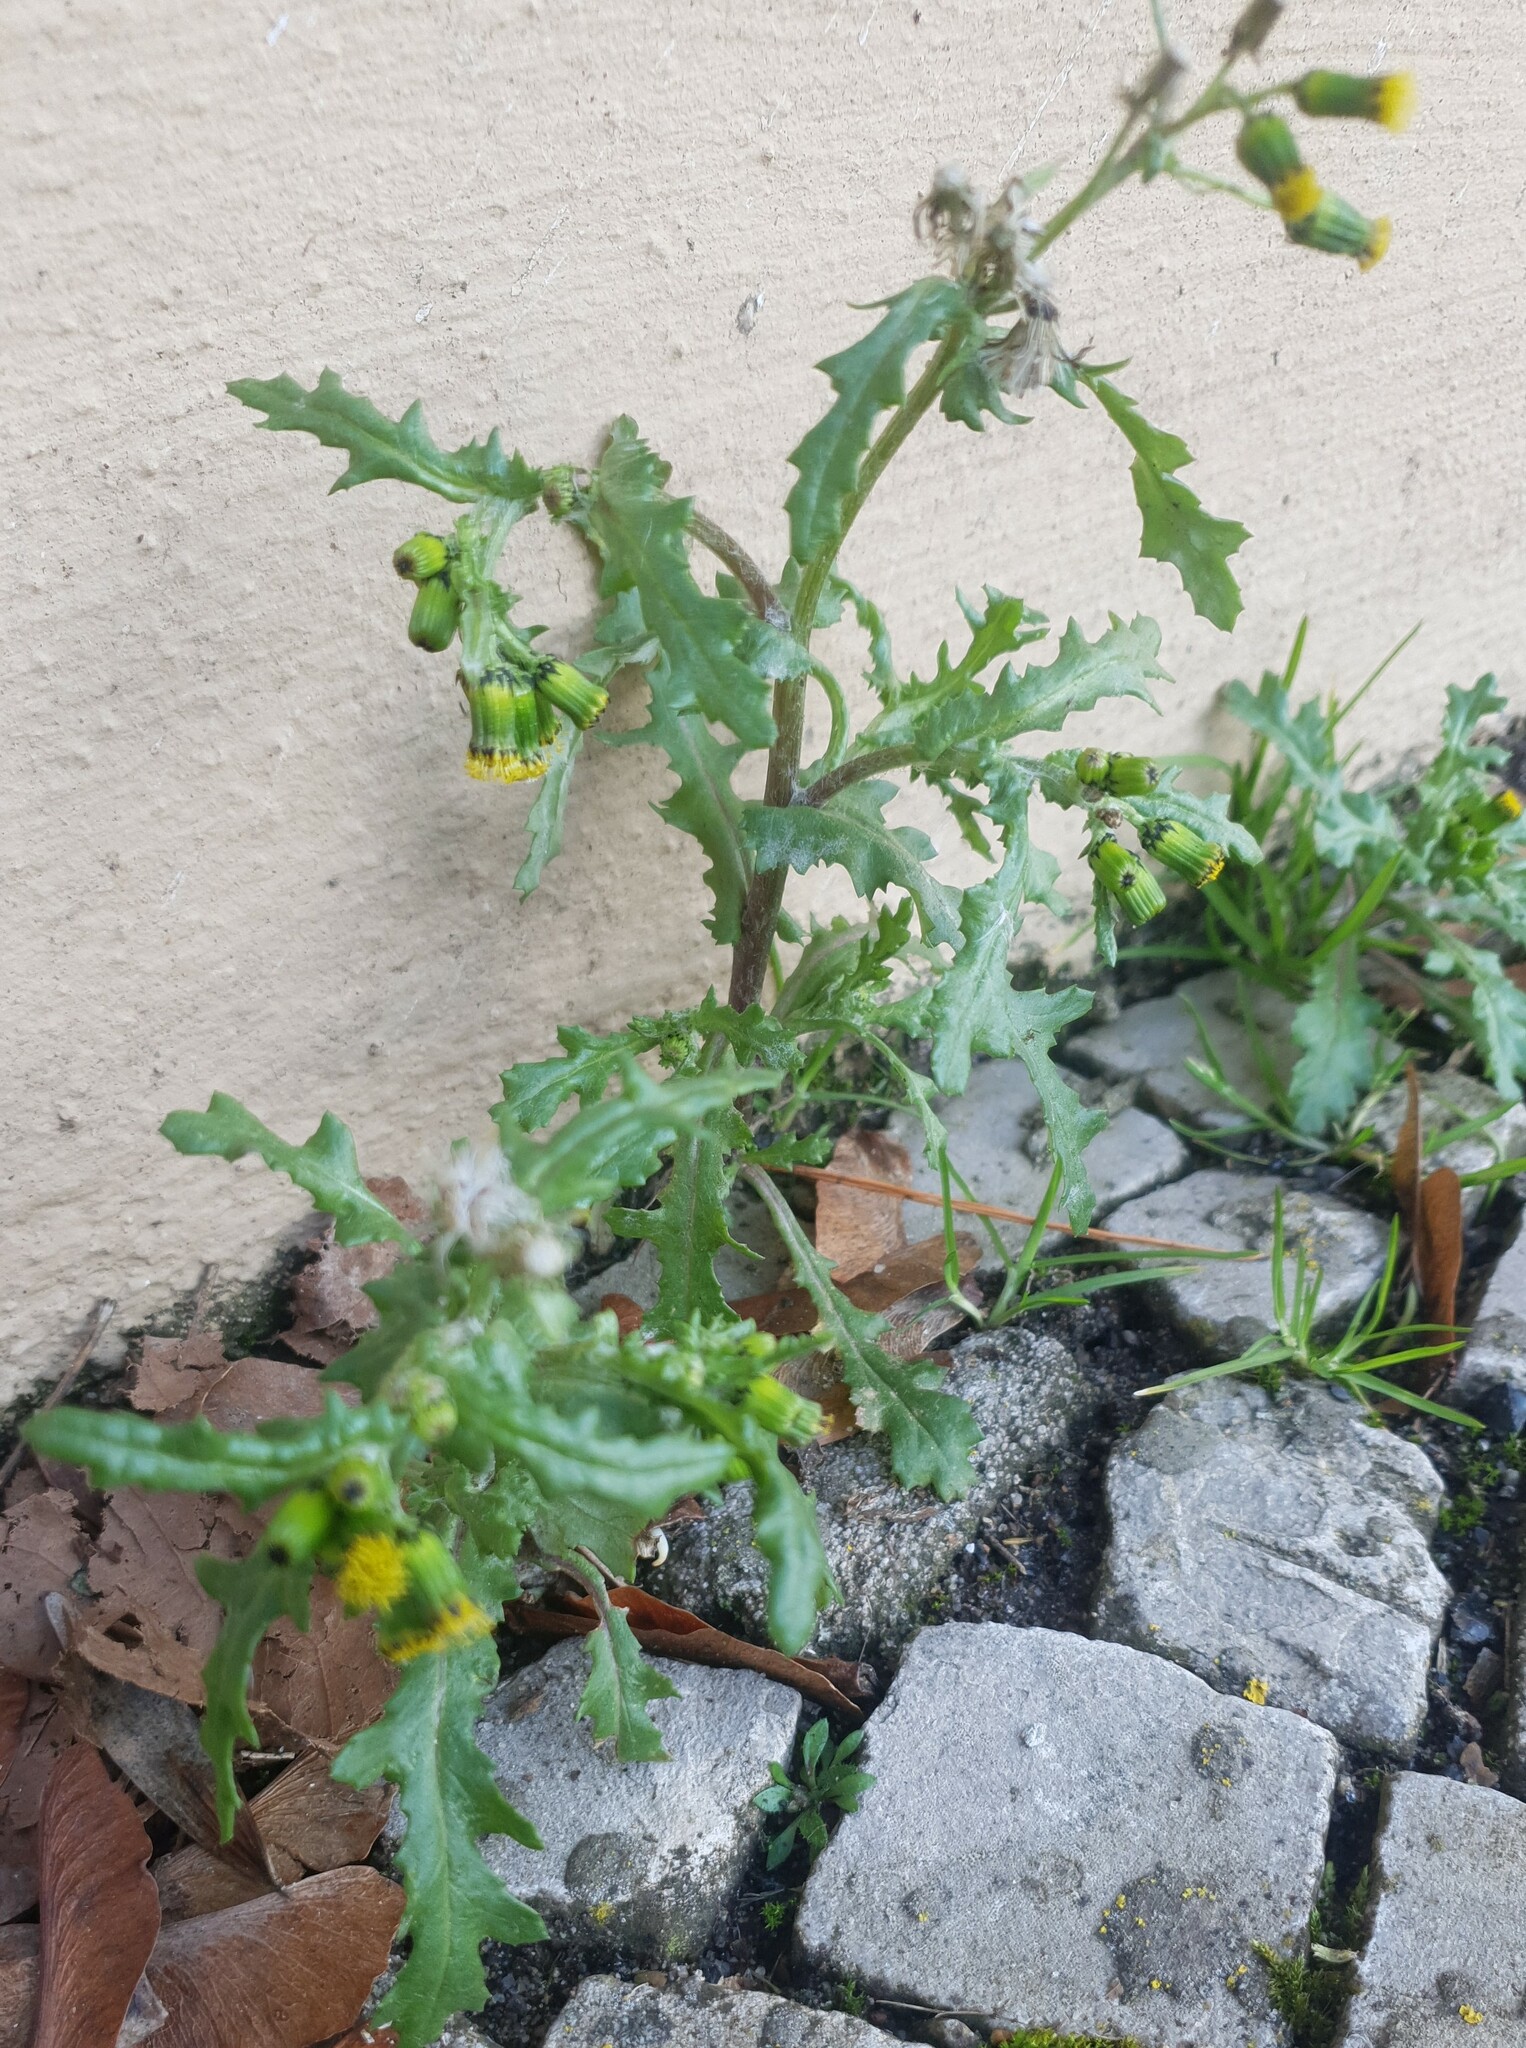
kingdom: Plantae
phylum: Tracheophyta
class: Magnoliopsida
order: Asterales
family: Asteraceae
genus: Senecio
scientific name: Senecio vulgaris
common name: Old-man-in-the-spring
